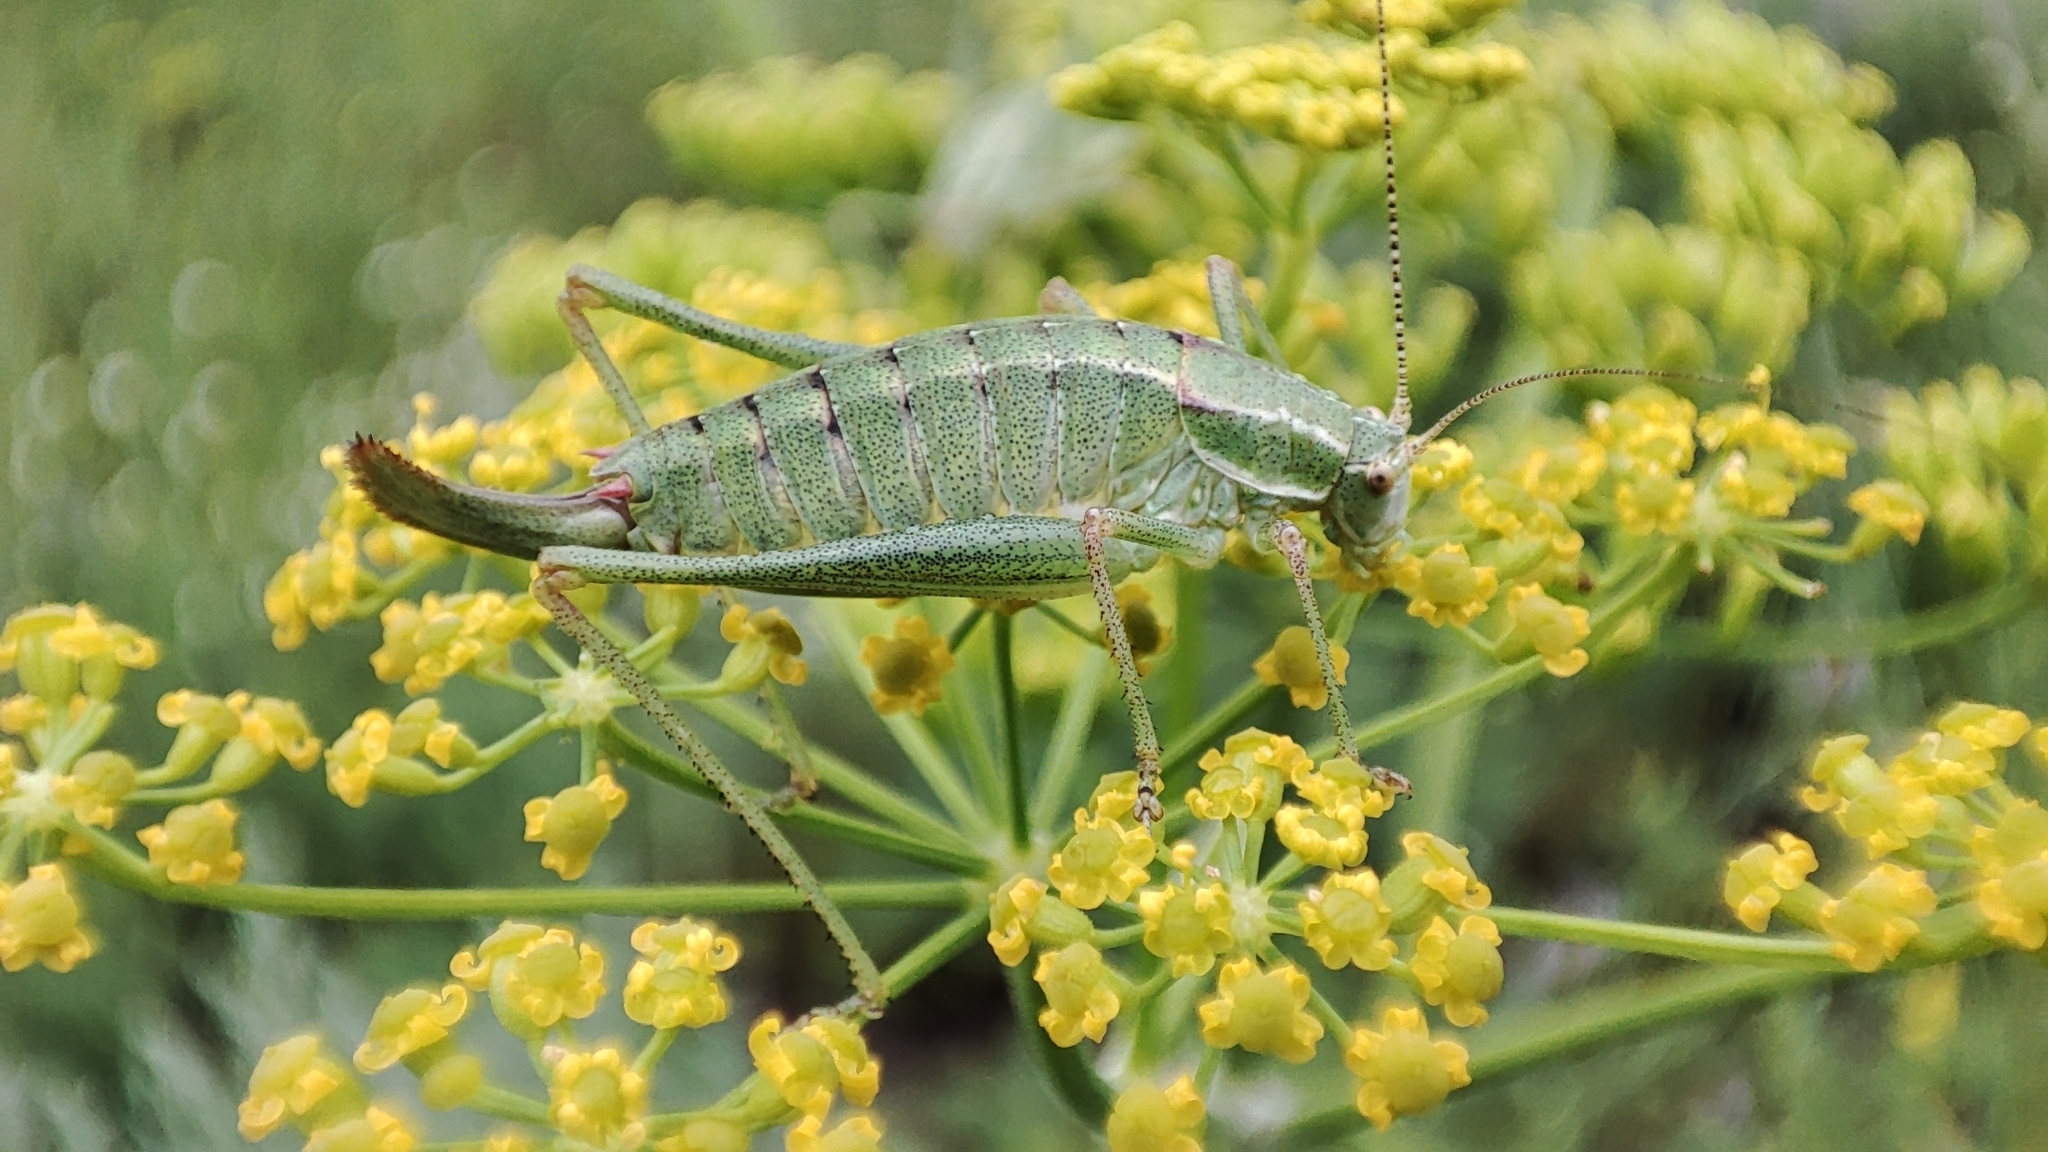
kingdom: Animalia
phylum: Arthropoda
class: Insecta
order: Orthoptera
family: Tettigoniidae
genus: Poecilimon
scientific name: Poecilimon intermedius
